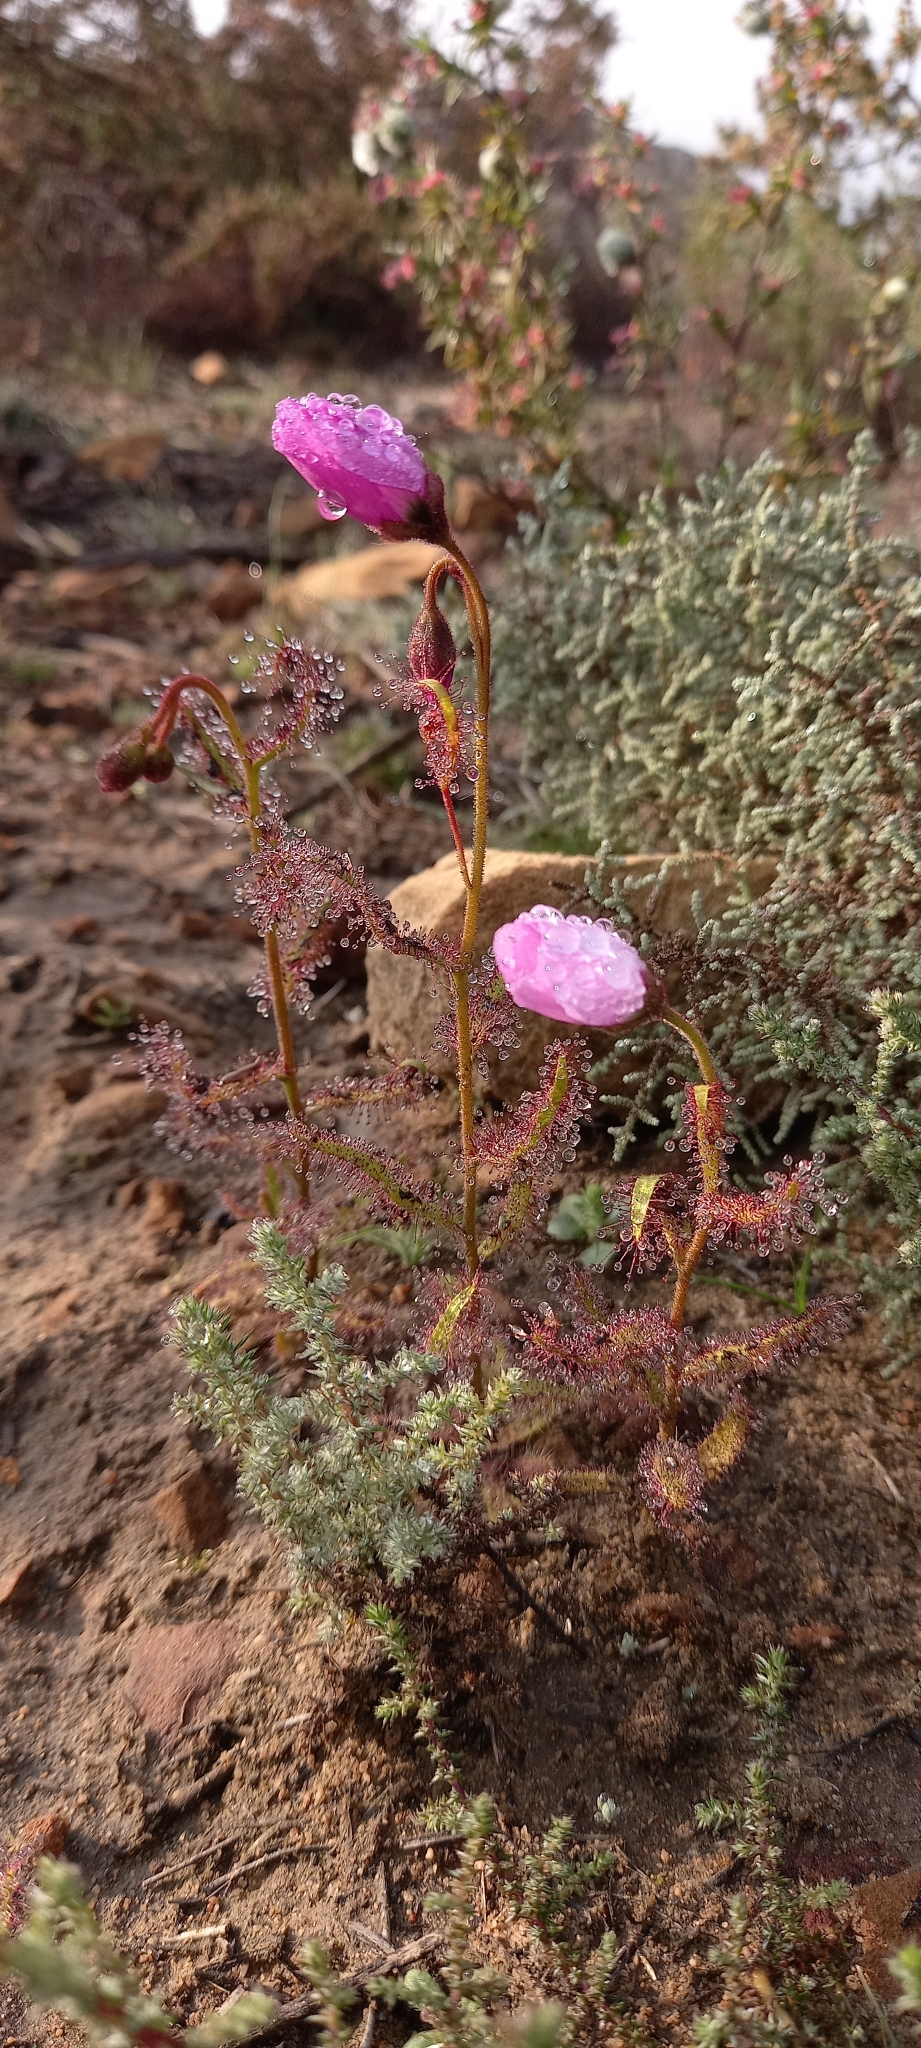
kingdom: Plantae
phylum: Tracheophyta
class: Magnoliopsida
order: Caryophyllales
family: Droseraceae
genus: Drosera
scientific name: Drosera cistiflora
